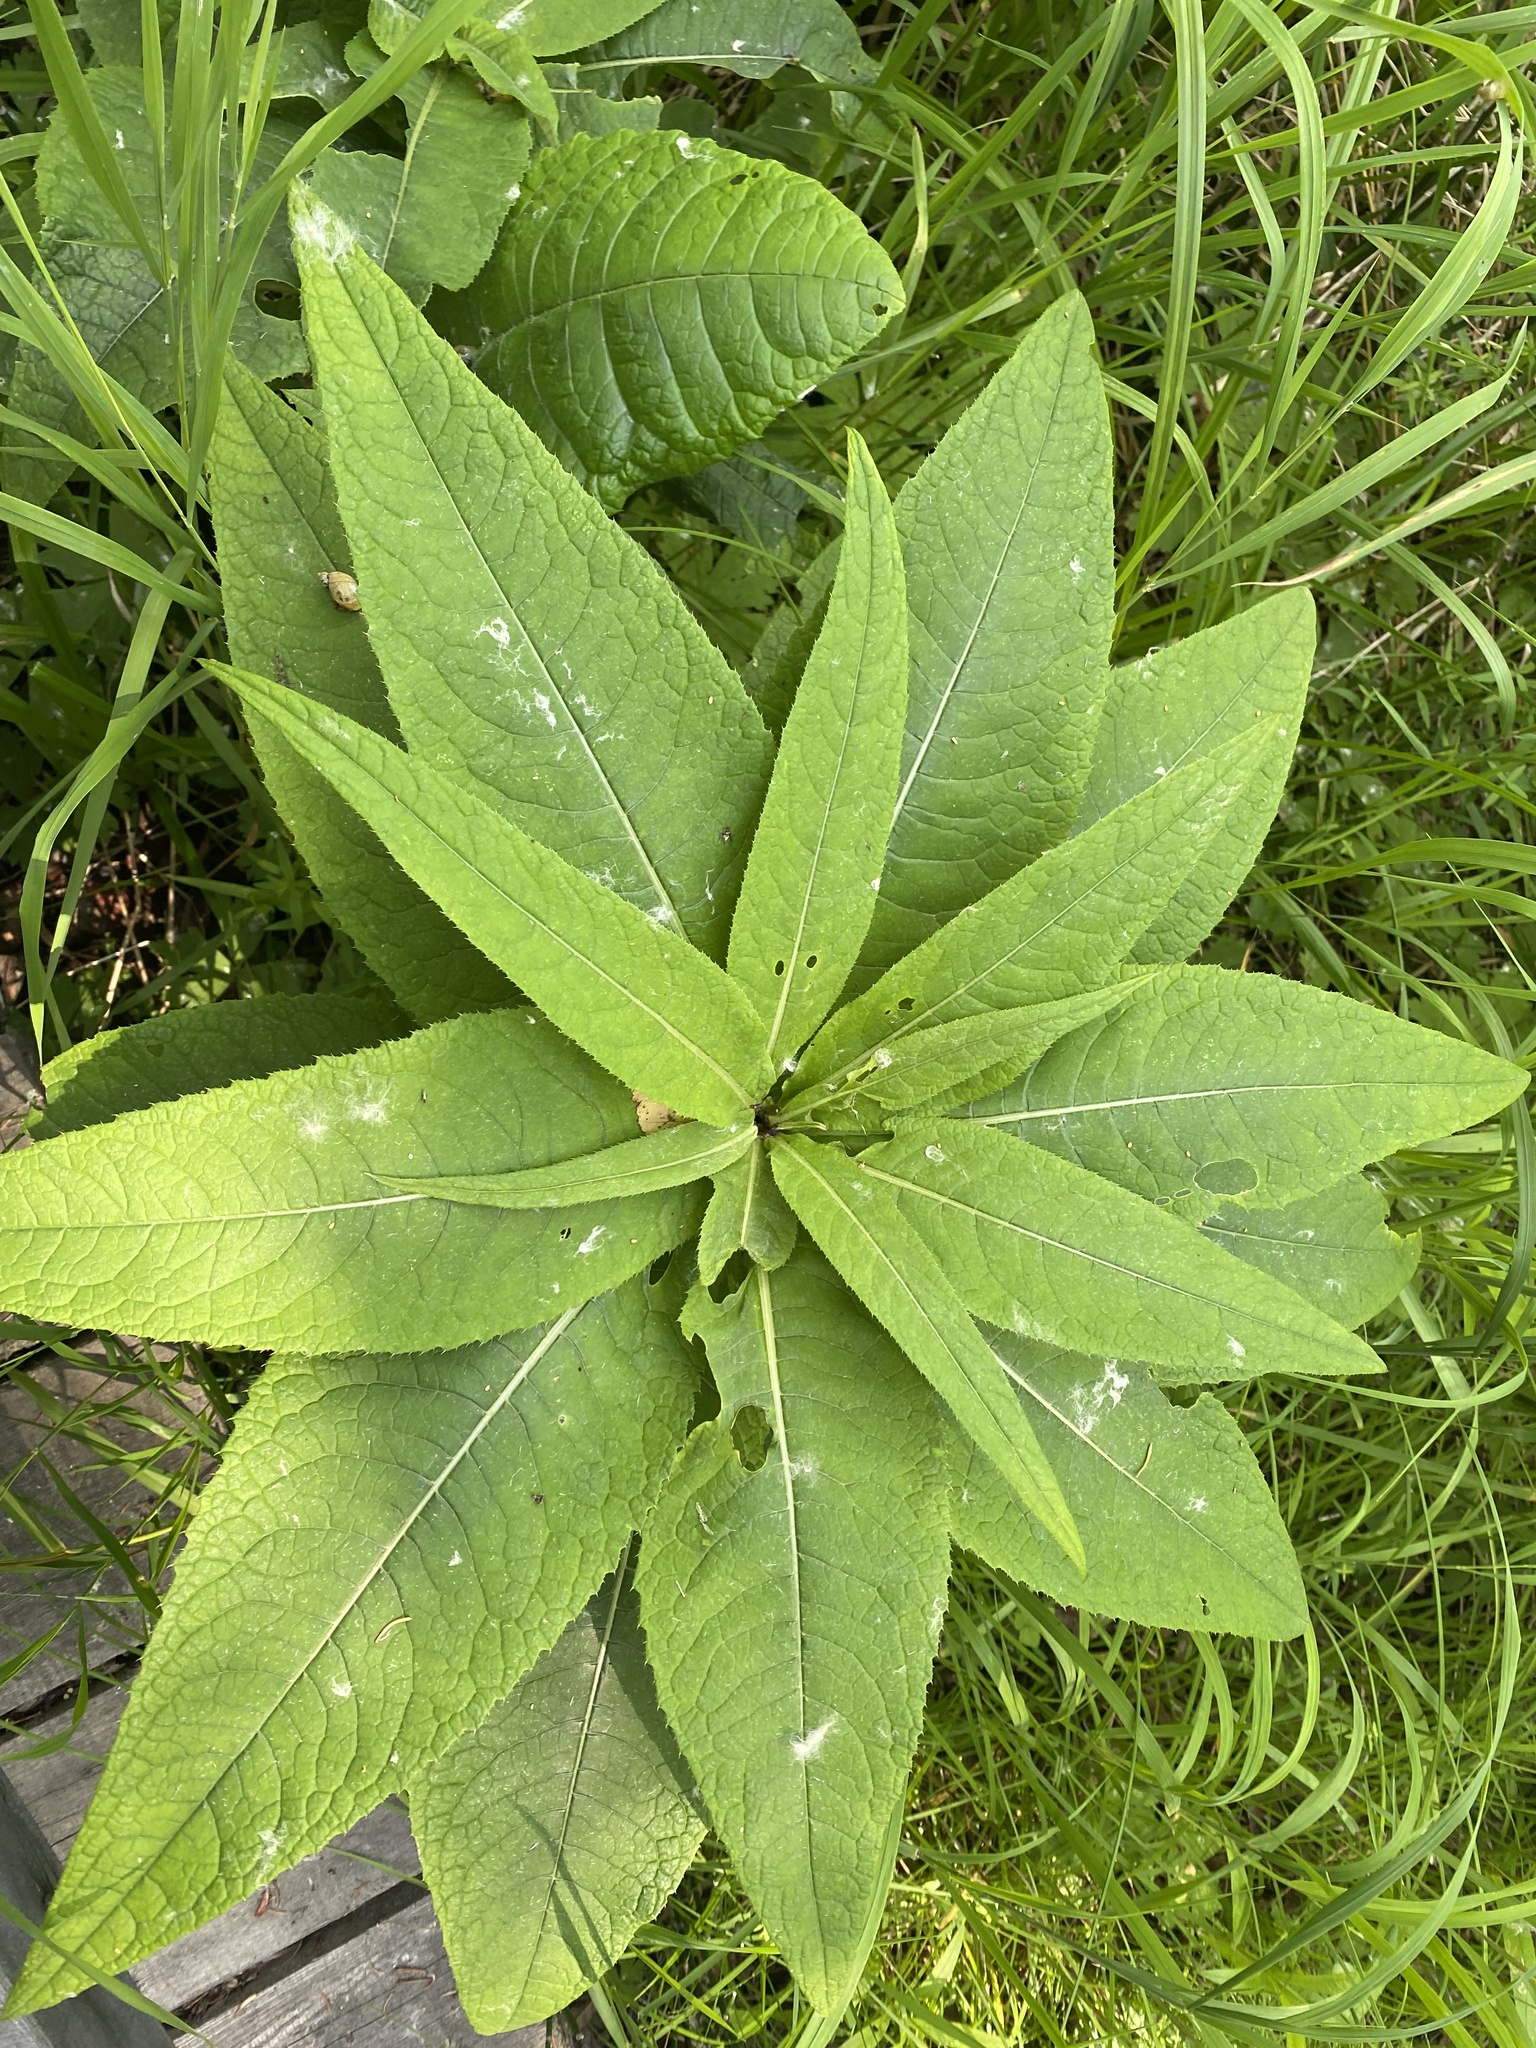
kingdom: Plantae
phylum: Tracheophyta
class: Magnoliopsida
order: Asterales
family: Asteraceae
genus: Cirsium
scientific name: Cirsium helenioides
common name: Melancholy thistle
